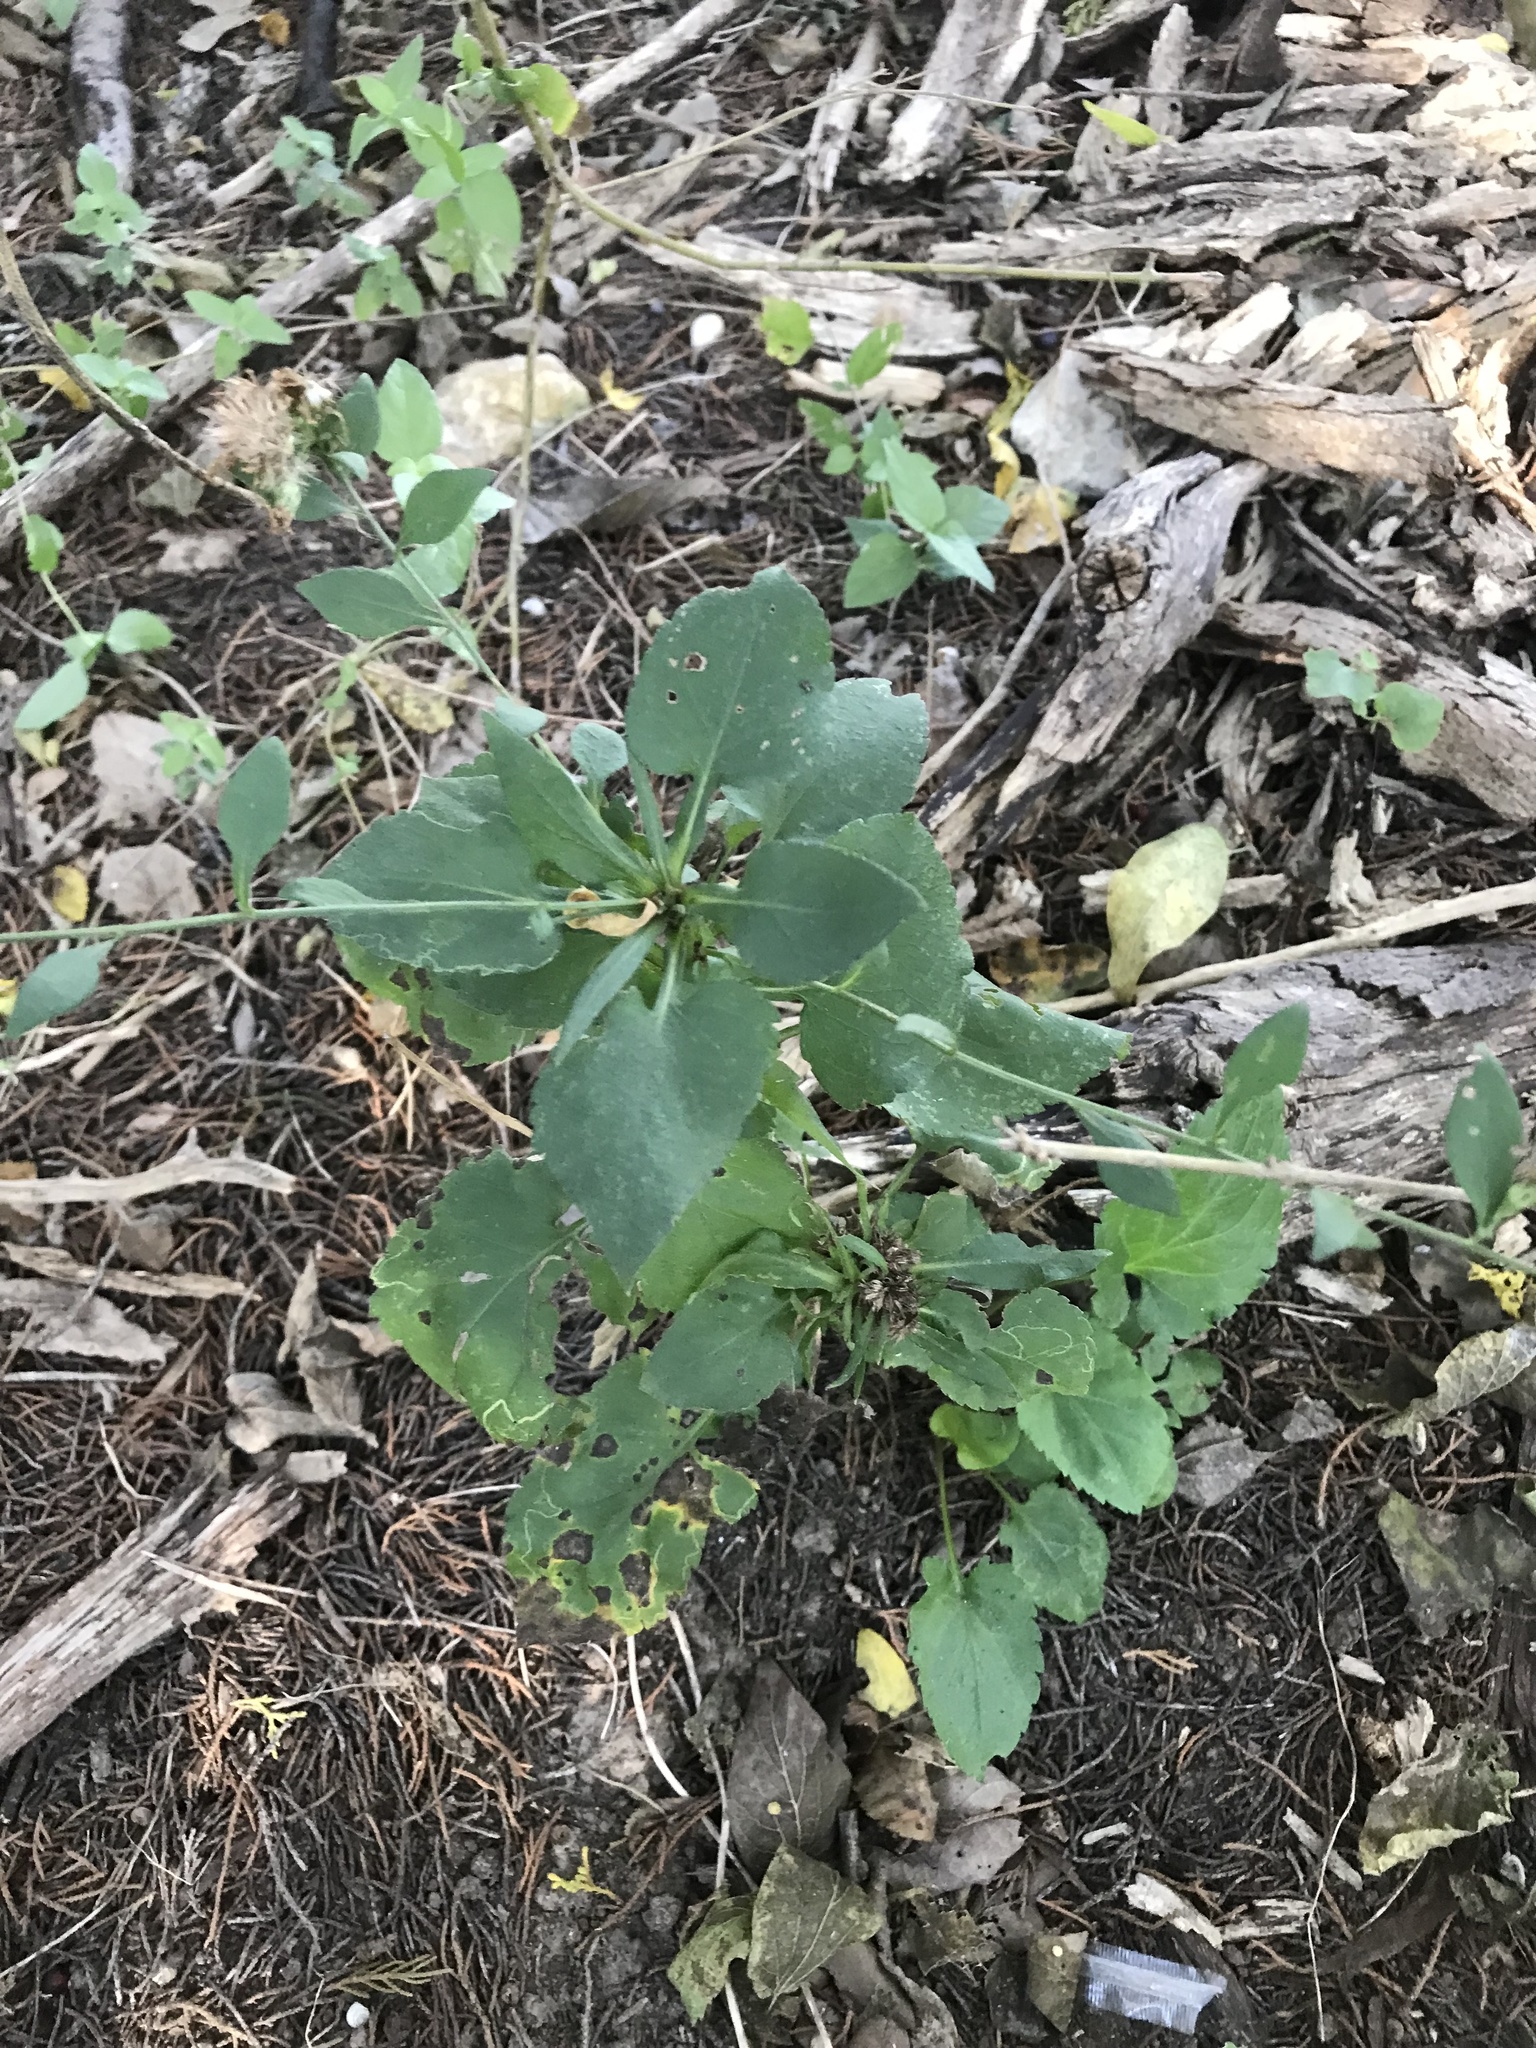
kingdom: Plantae
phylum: Tracheophyta
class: Magnoliopsida
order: Asterales
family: Asteraceae
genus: Symphyotrichum
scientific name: Symphyotrichum drummondii
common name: Drummond's aster
